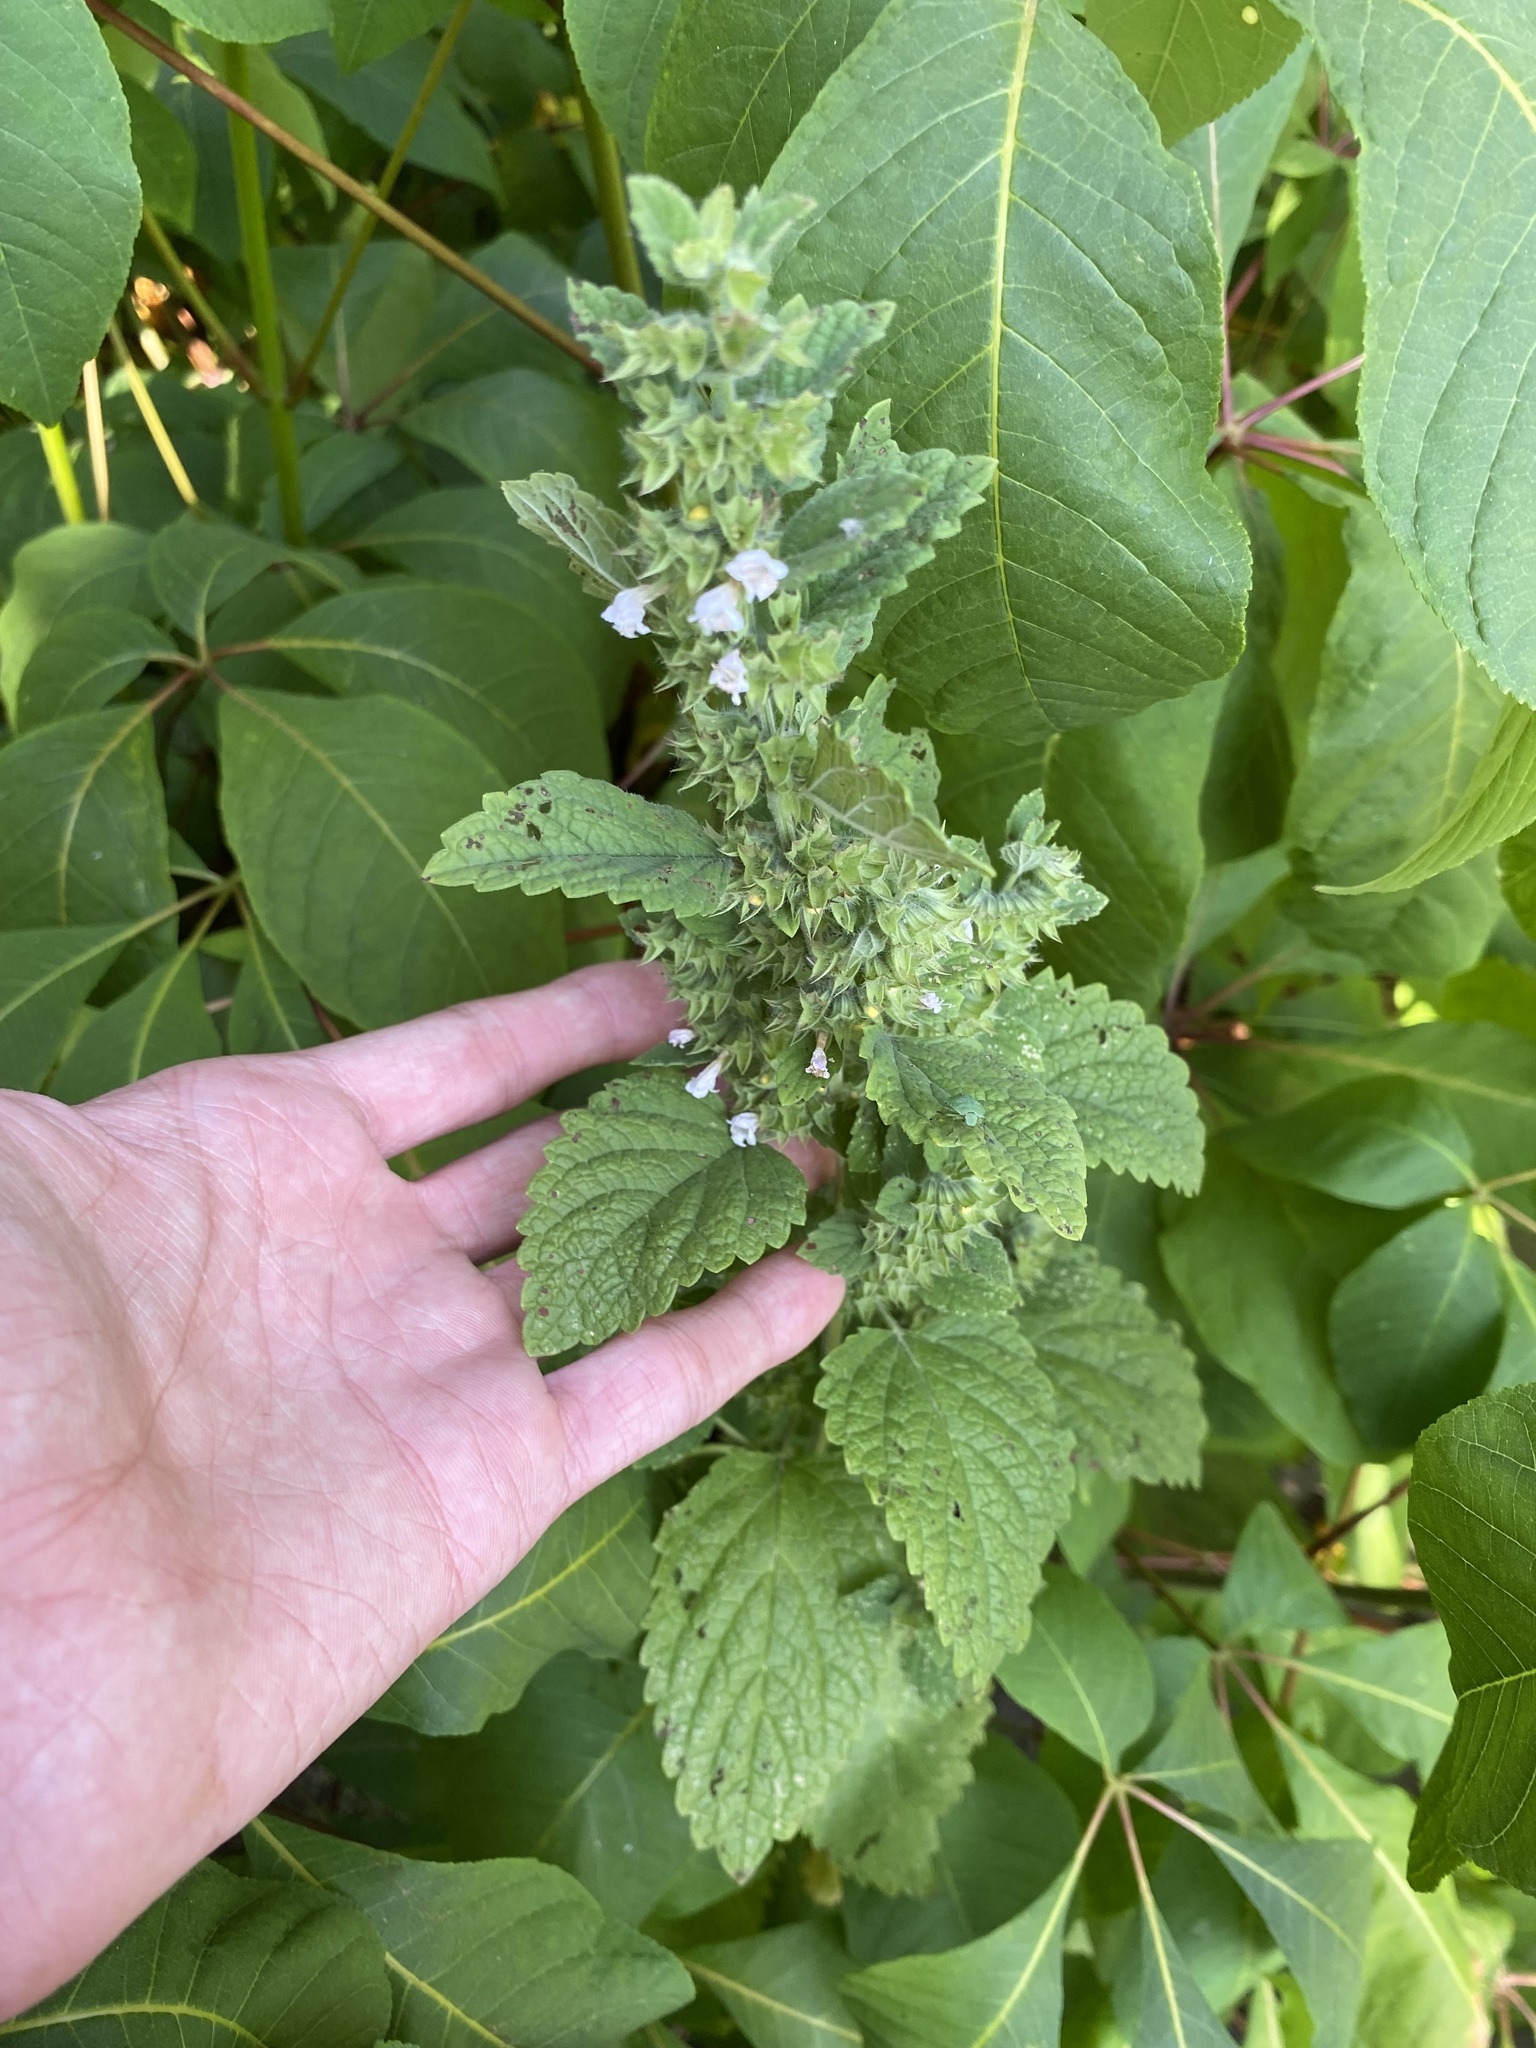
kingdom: Plantae
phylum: Tracheophyta
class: Magnoliopsida
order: Lamiales
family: Lamiaceae
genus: Melissa
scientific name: Melissa officinalis
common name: Balm
